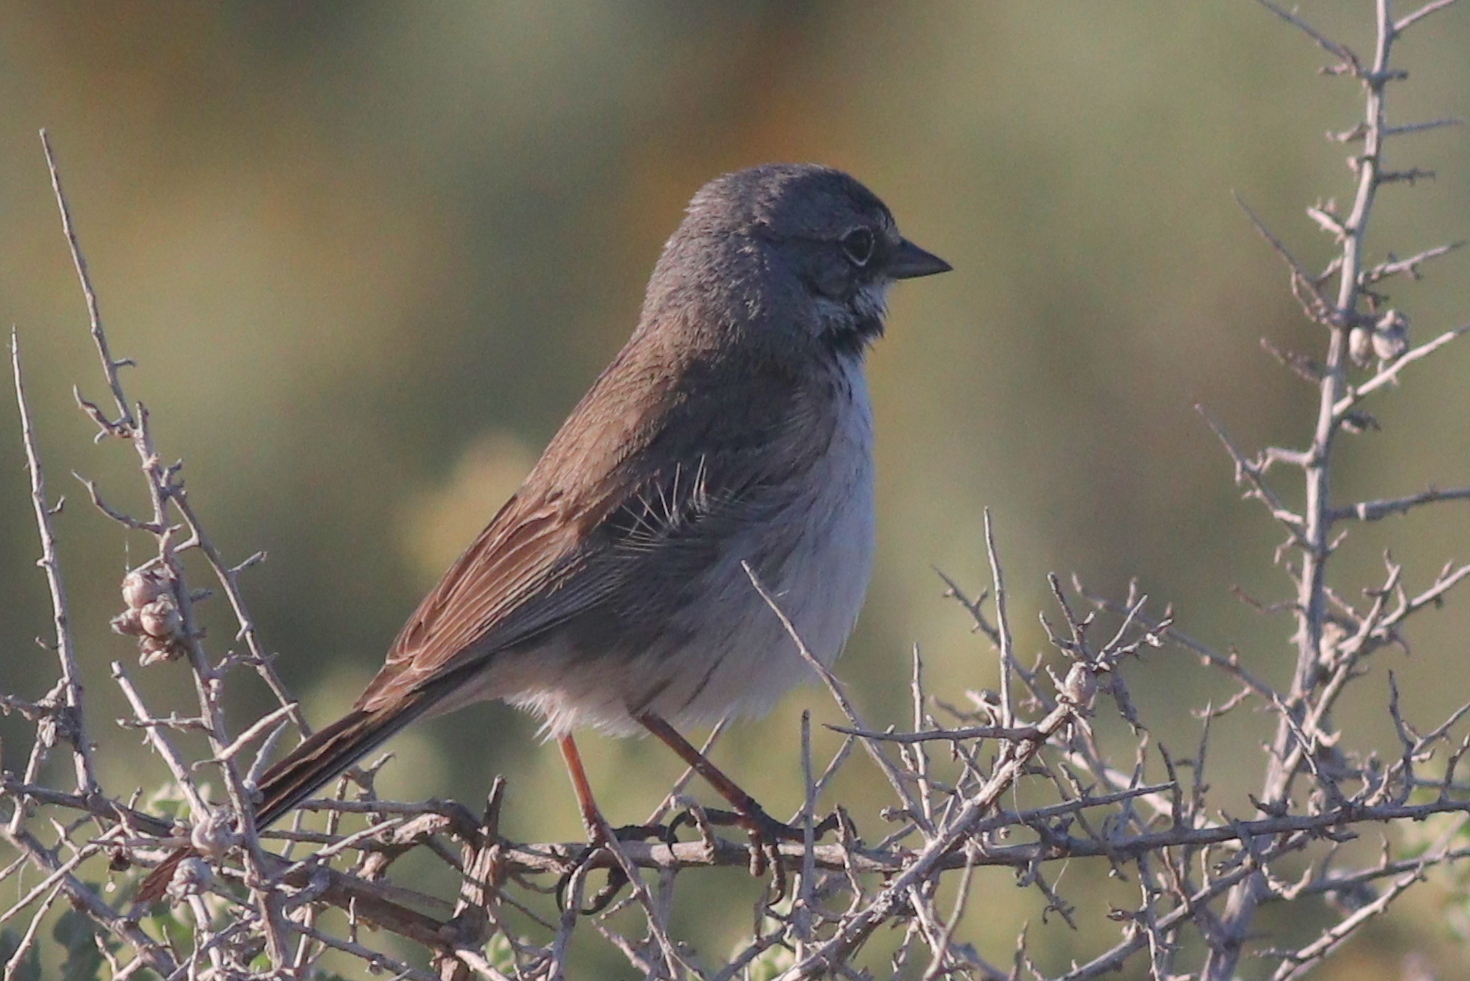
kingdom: Animalia
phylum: Chordata
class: Aves
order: Passeriformes
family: Passerellidae
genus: Artemisiospiza
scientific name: Artemisiospiza belli
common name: Bell's sparrow
